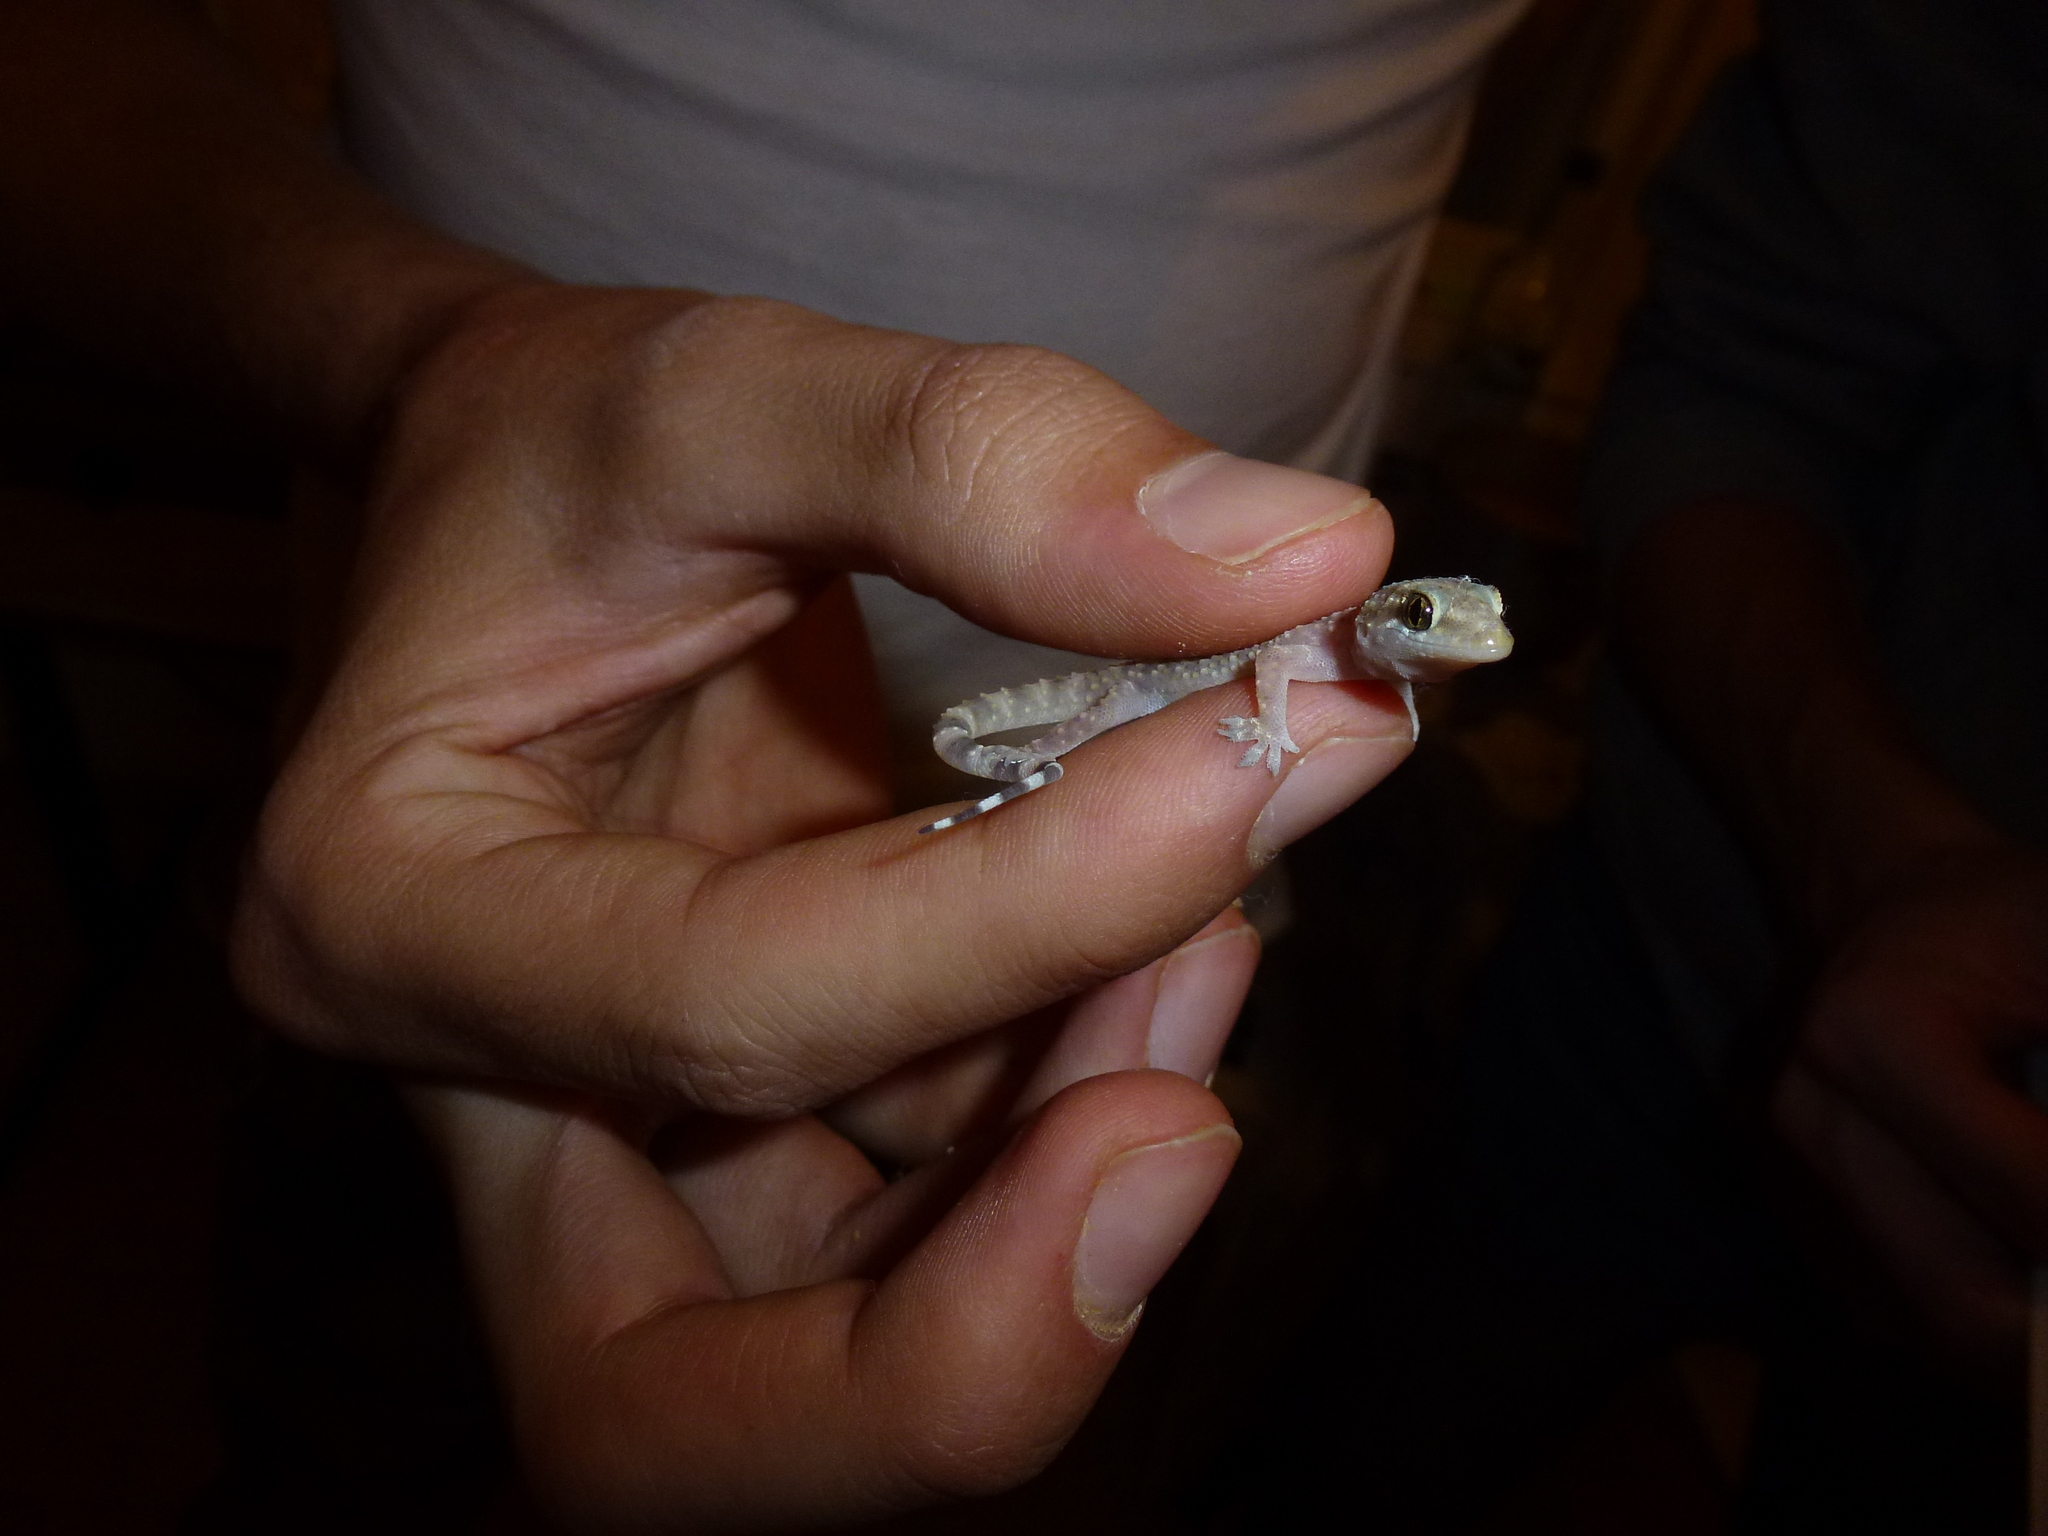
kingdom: Animalia
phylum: Chordata
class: Squamata
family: Gekkonidae
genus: Hemidactylus
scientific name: Hemidactylus turcicus
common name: Turkish gecko
